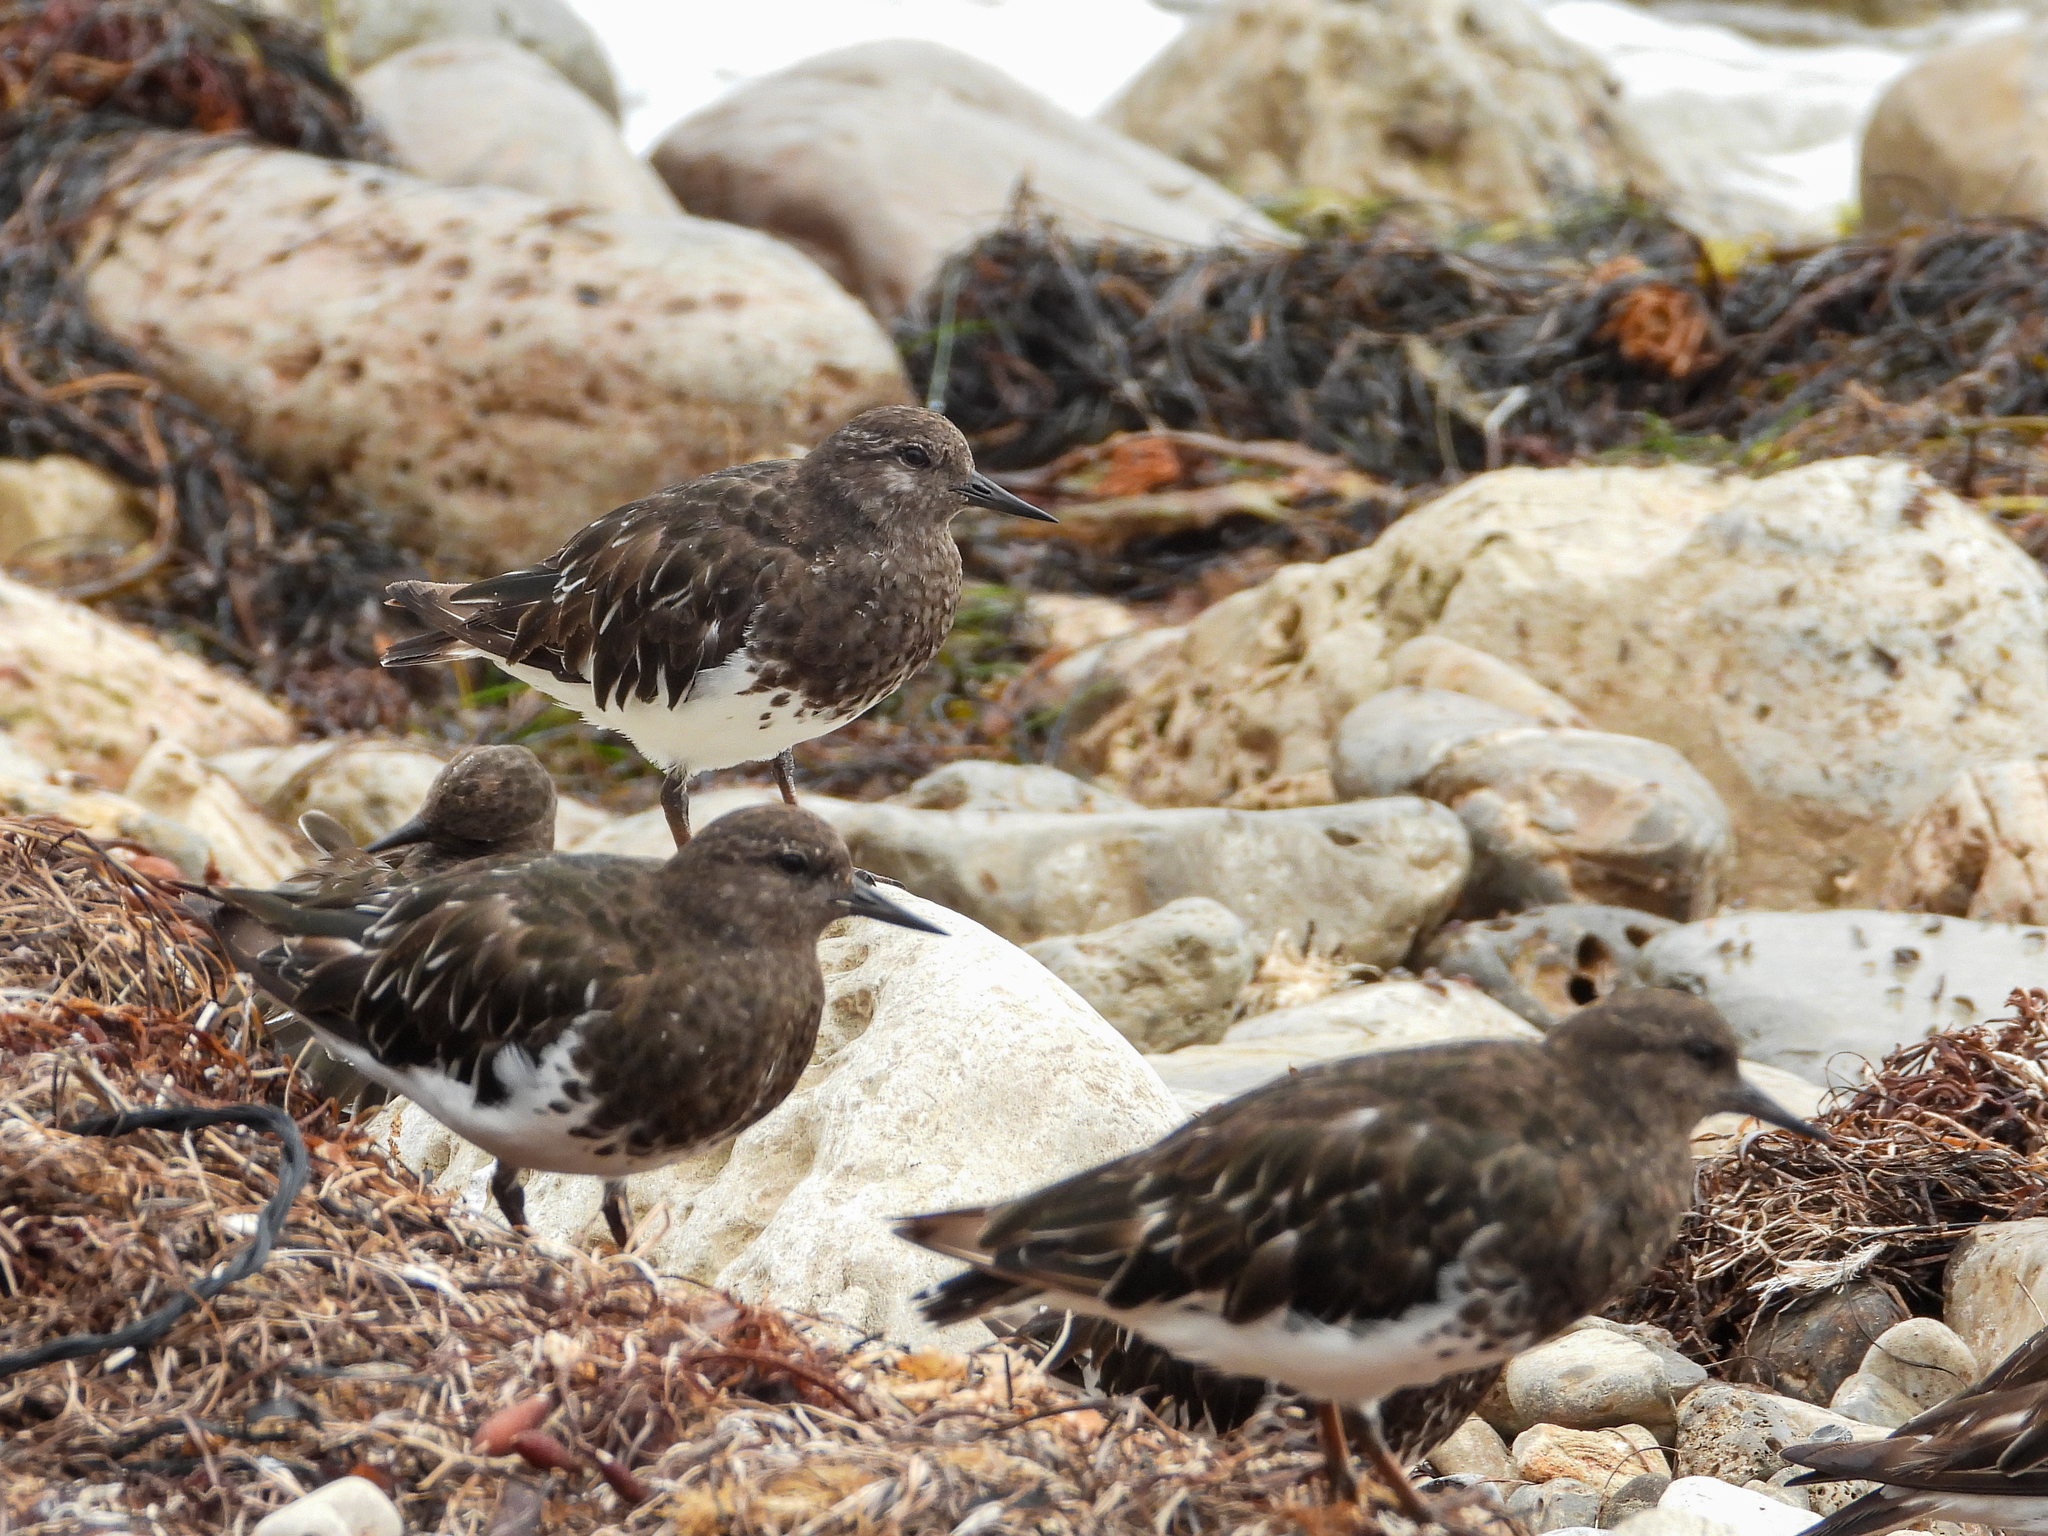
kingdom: Animalia
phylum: Chordata
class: Aves
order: Charadriiformes
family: Scolopacidae
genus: Arenaria
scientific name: Arenaria melanocephala
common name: Black turnstone
